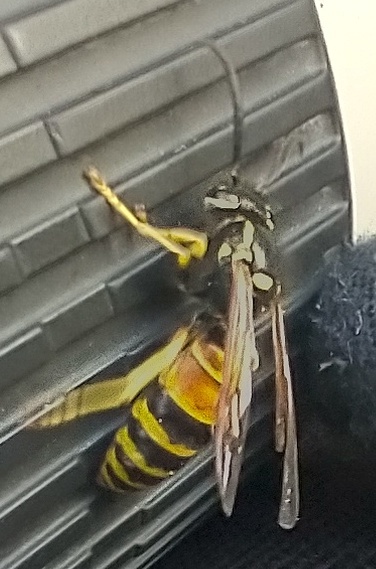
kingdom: Animalia
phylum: Arthropoda
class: Insecta
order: Hymenoptera
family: Vespidae
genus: Vespula
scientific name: Vespula rufa
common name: Red wasp
